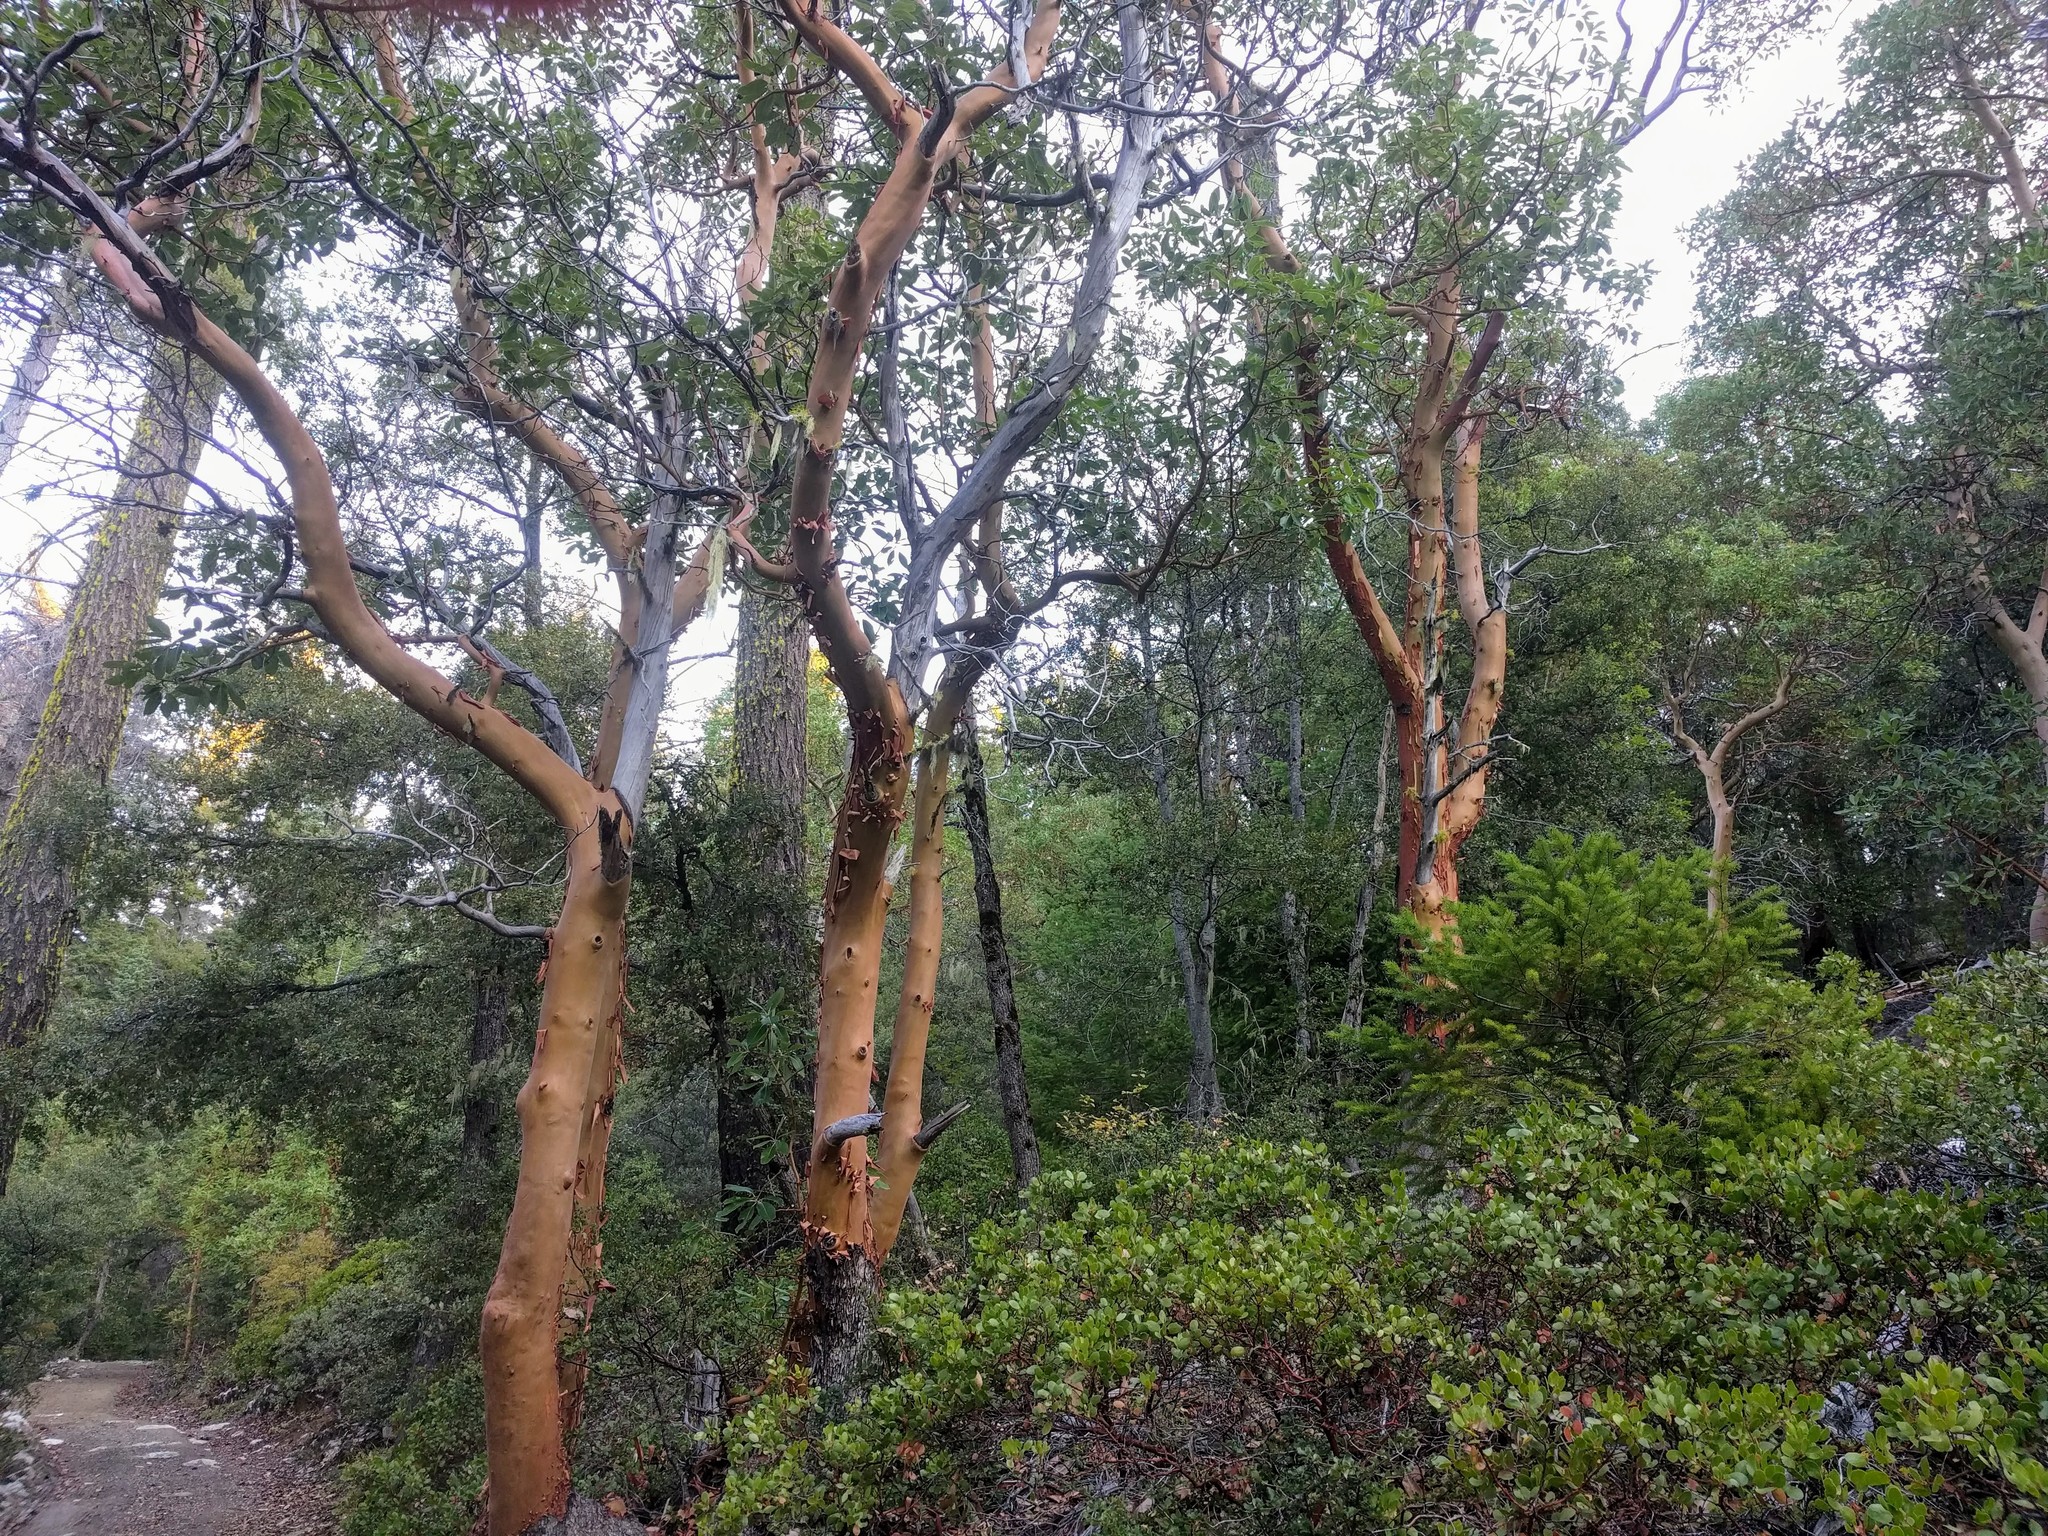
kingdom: Plantae
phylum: Tracheophyta
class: Magnoliopsida
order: Ericales
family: Ericaceae
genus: Arbutus
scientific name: Arbutus menziesii
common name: Pacific madrone
